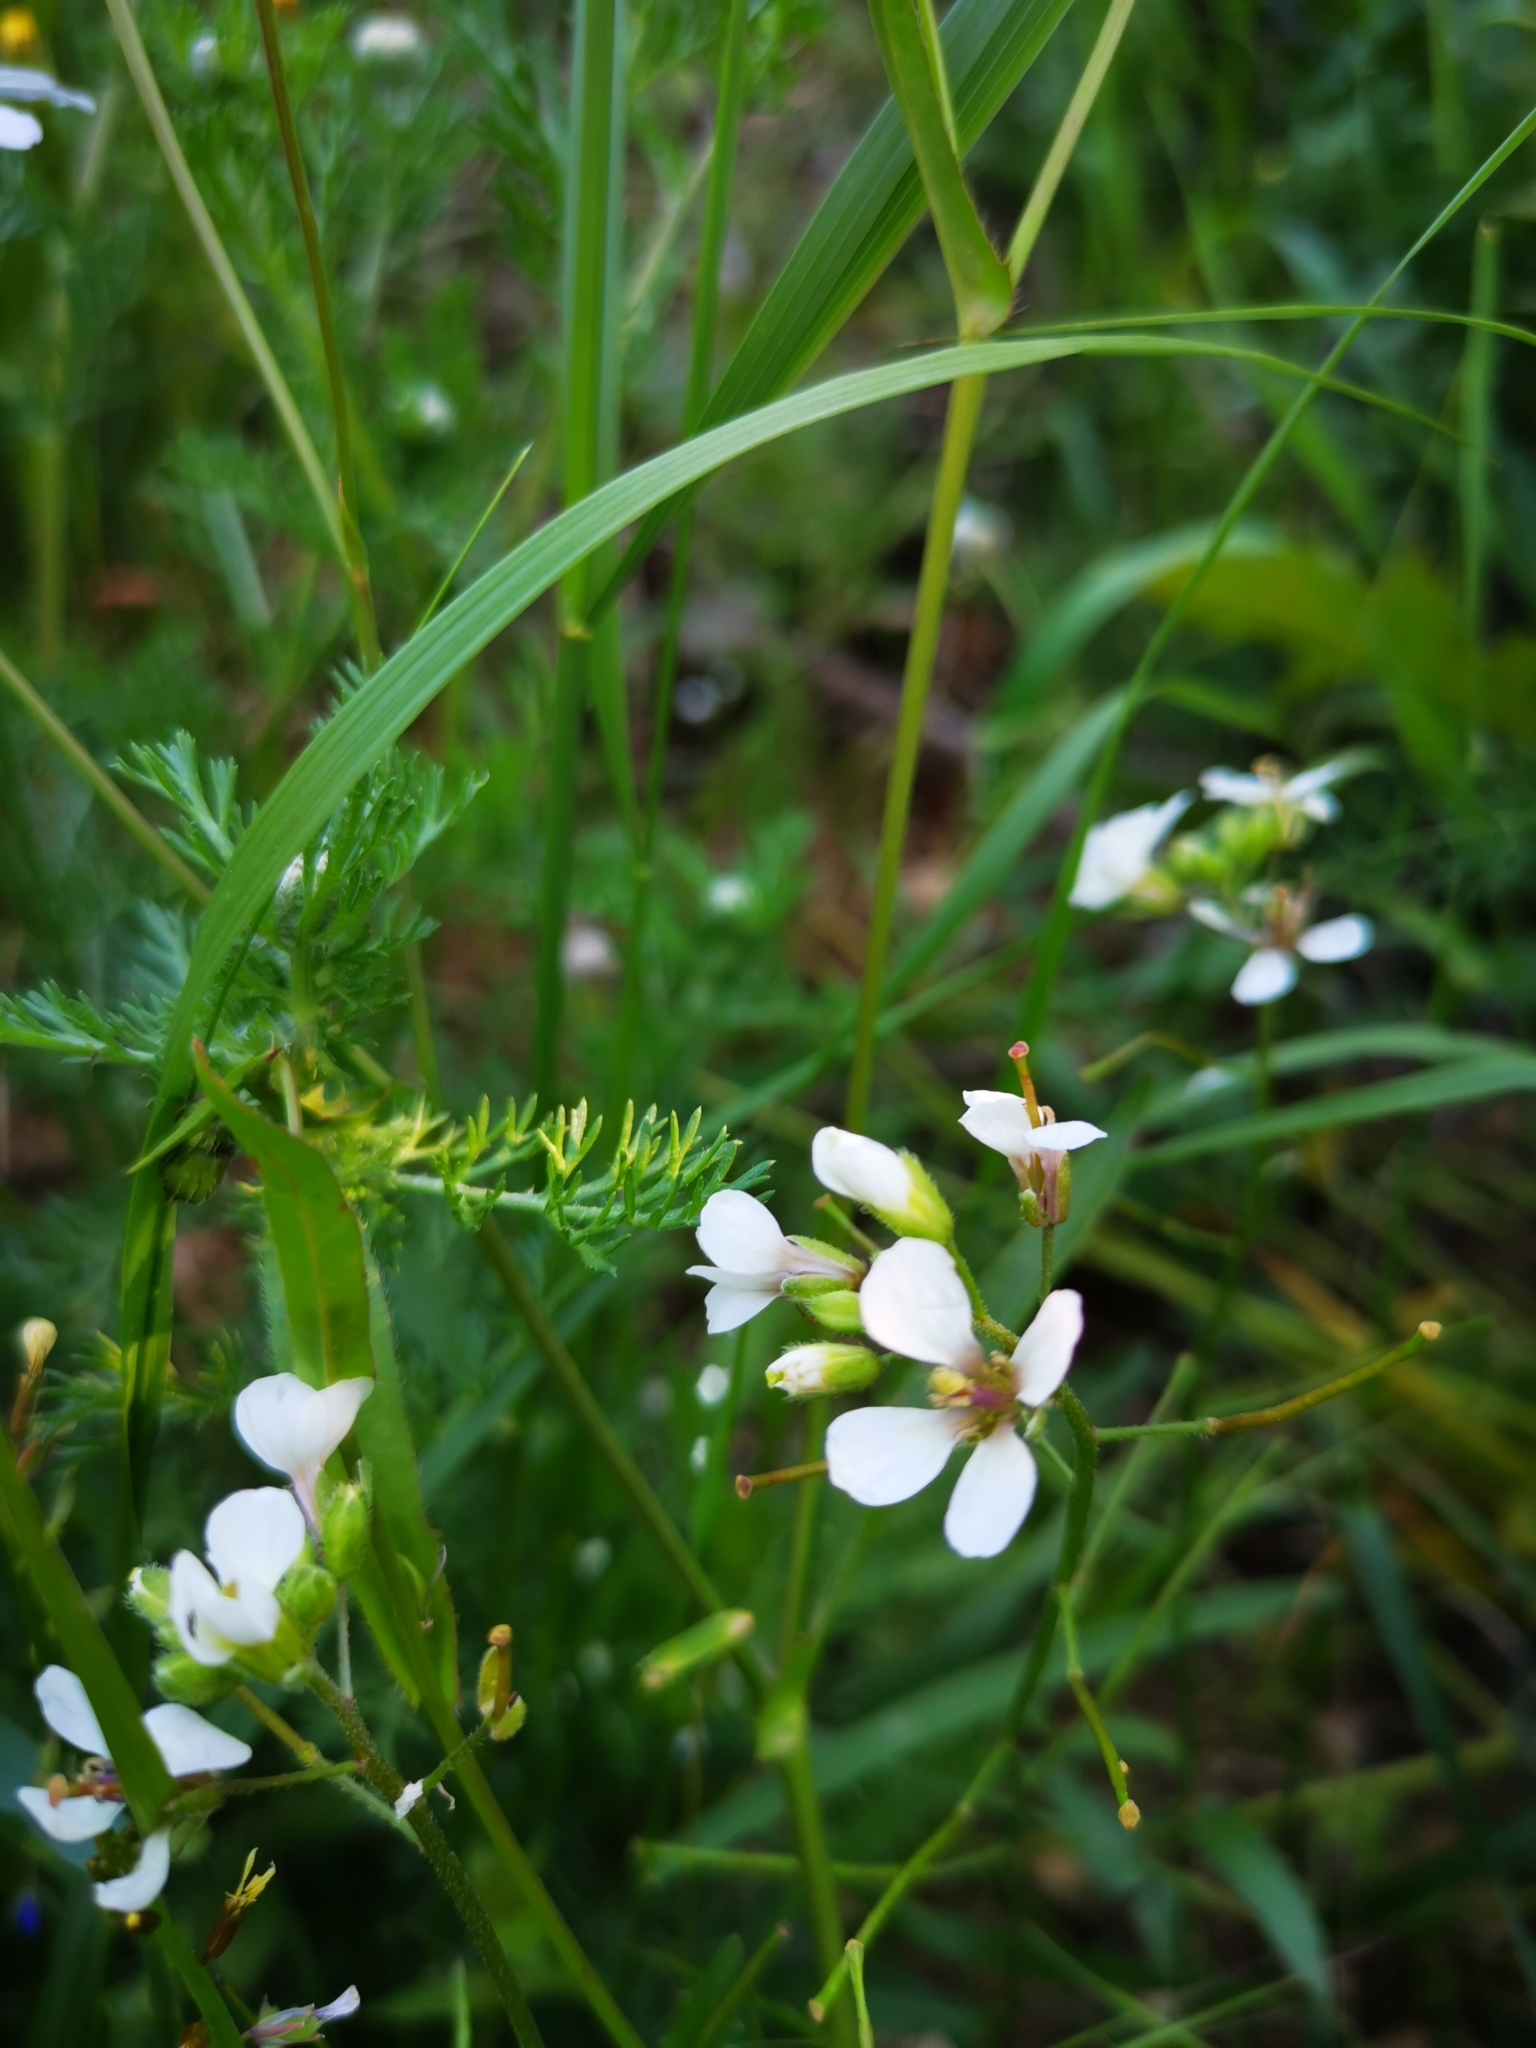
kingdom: Plantae
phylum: Tracheophyta
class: Magnoliopsida
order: Brassicales
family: Brassicaceae
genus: Diplotaxis
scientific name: Diplotaxis erucoides
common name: White rocket
